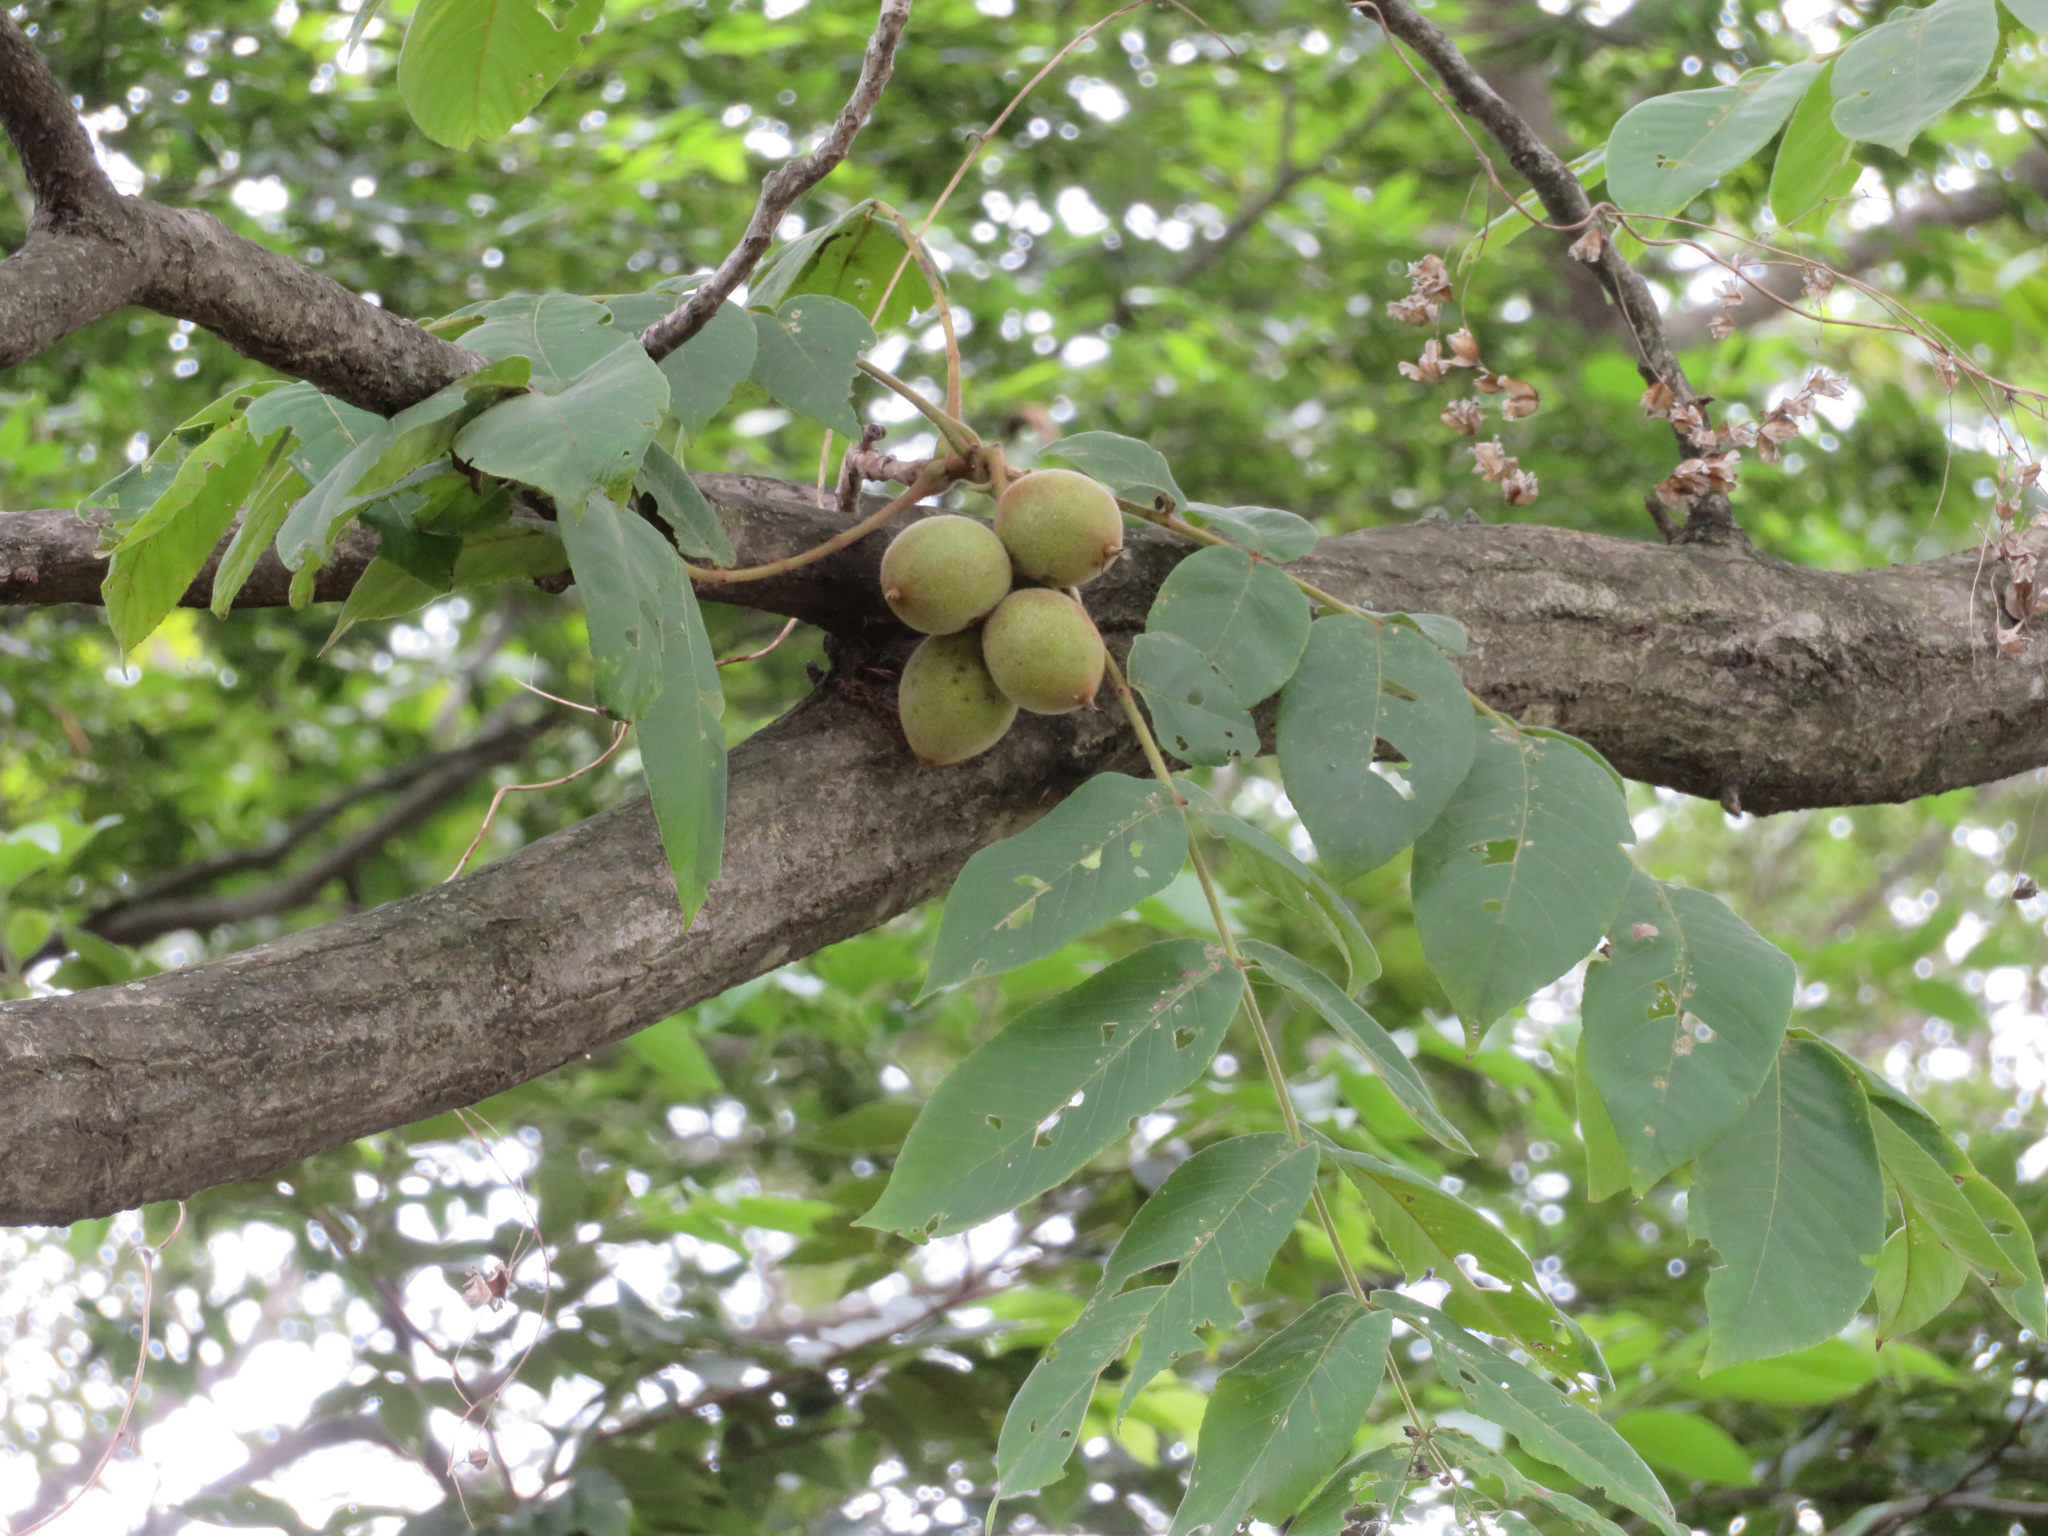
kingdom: Plantae
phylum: Tracheophyta
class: Magnoliopsida
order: Fagales
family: Juglandaceae
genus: Juglans
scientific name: Juglans ailantifolia
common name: Japanese walnut
